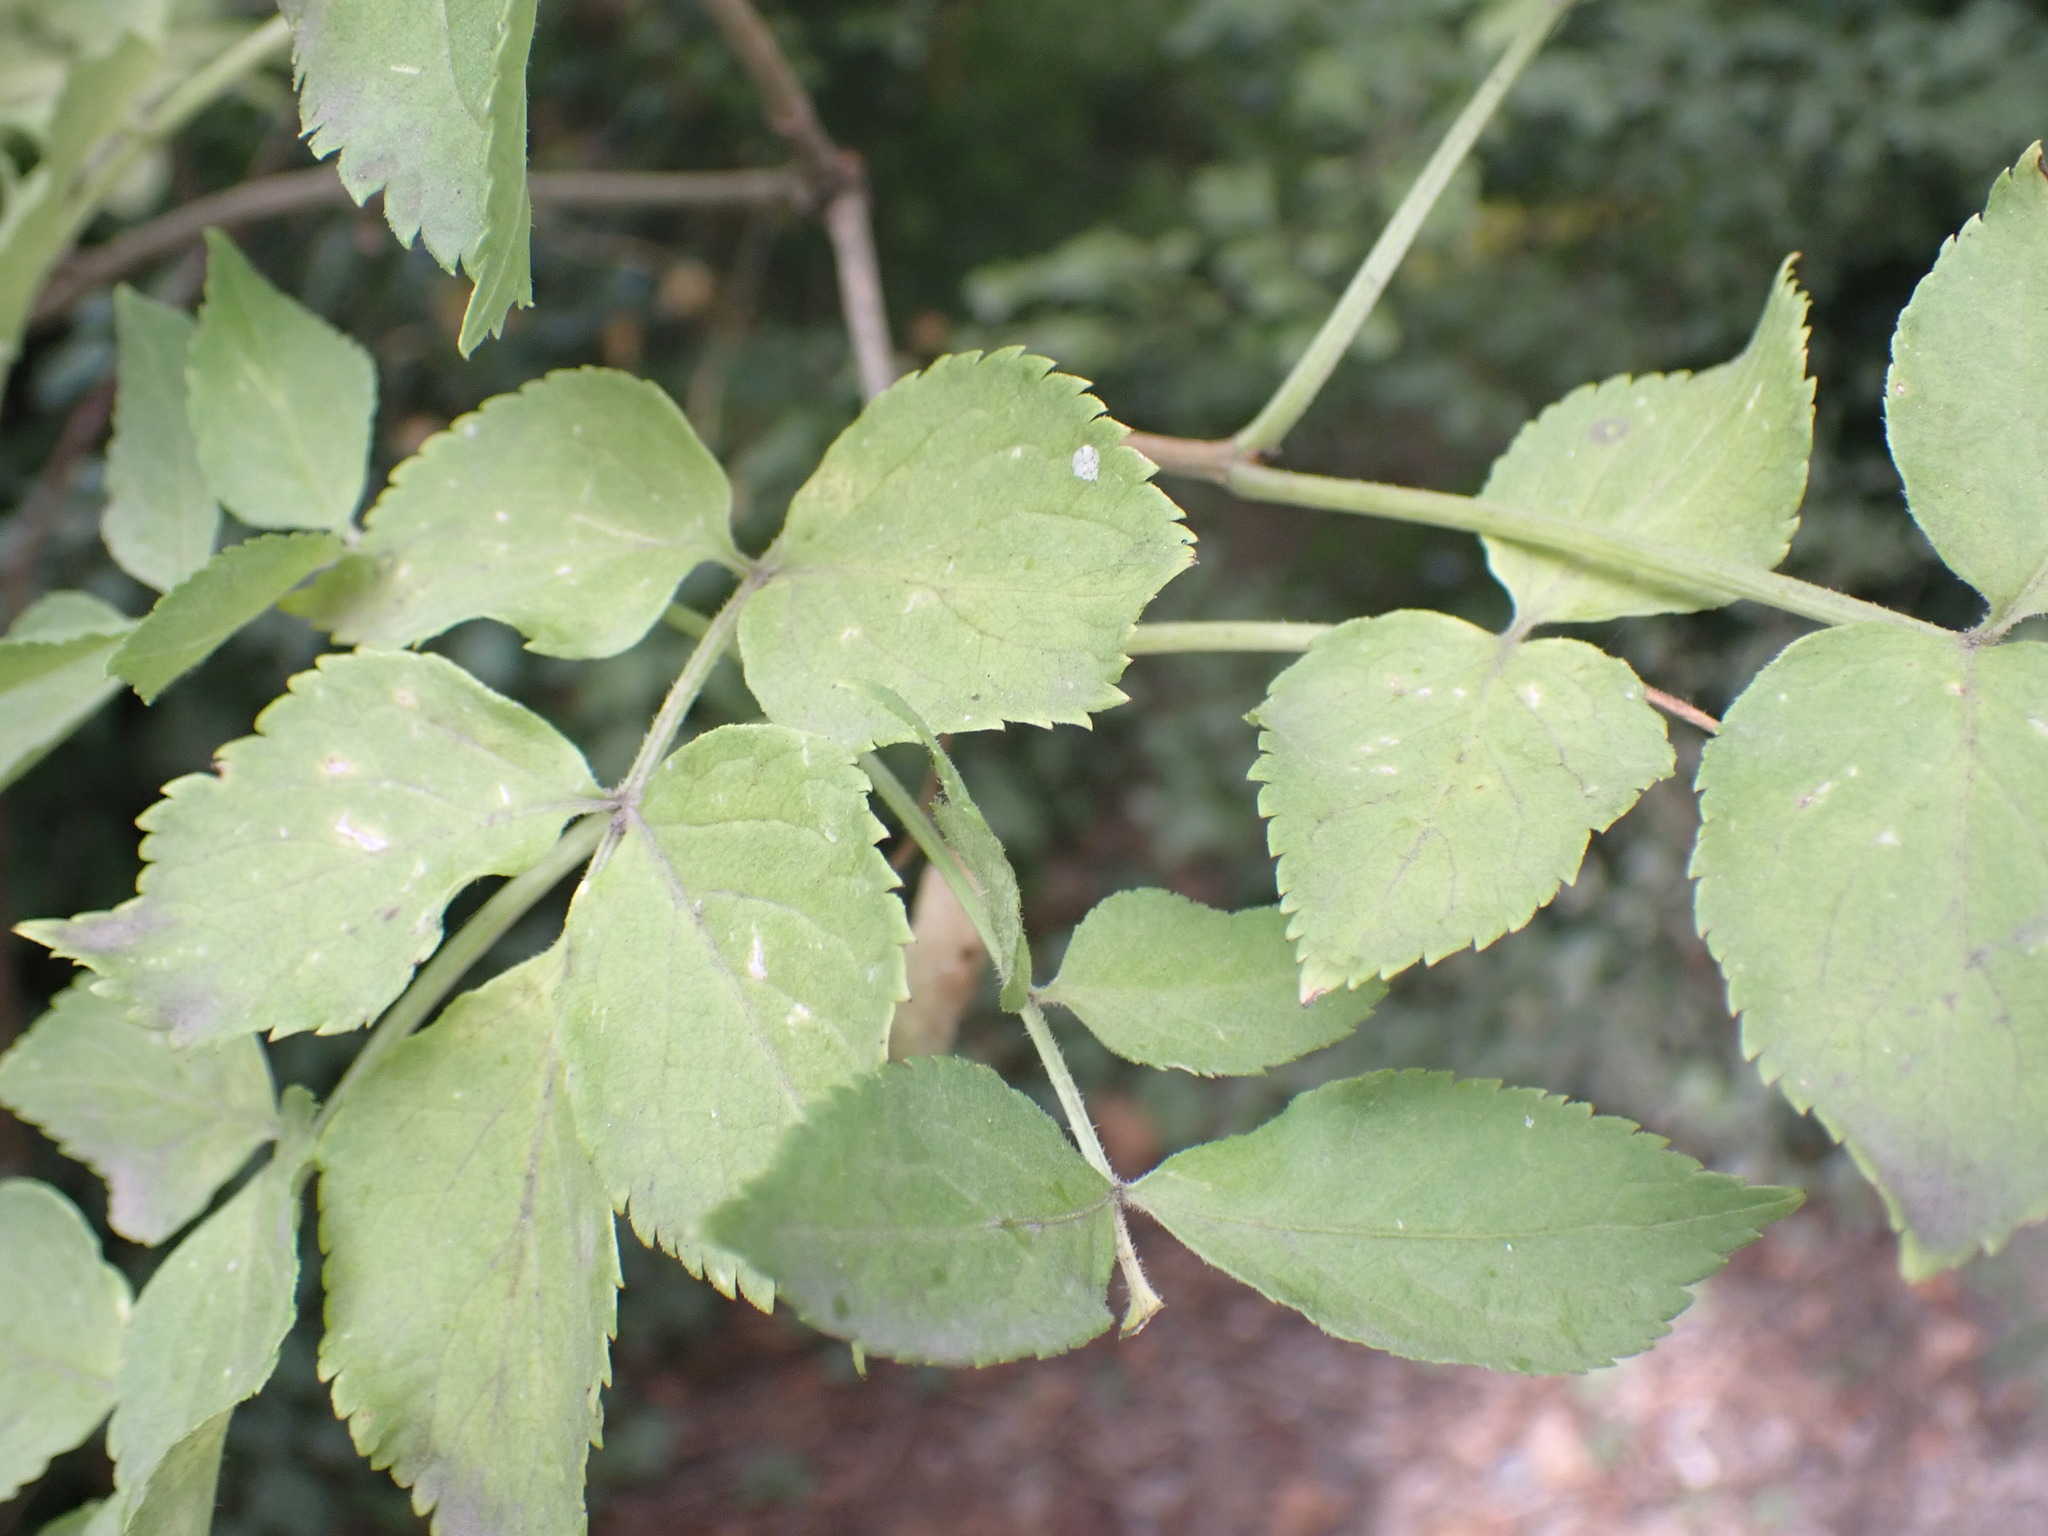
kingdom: Plantae
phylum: Tracheophyta
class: Magnoliopsida
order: Dipsacales
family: Viburnaceae
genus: Sambucus
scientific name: Sambucus nigra
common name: Elder
